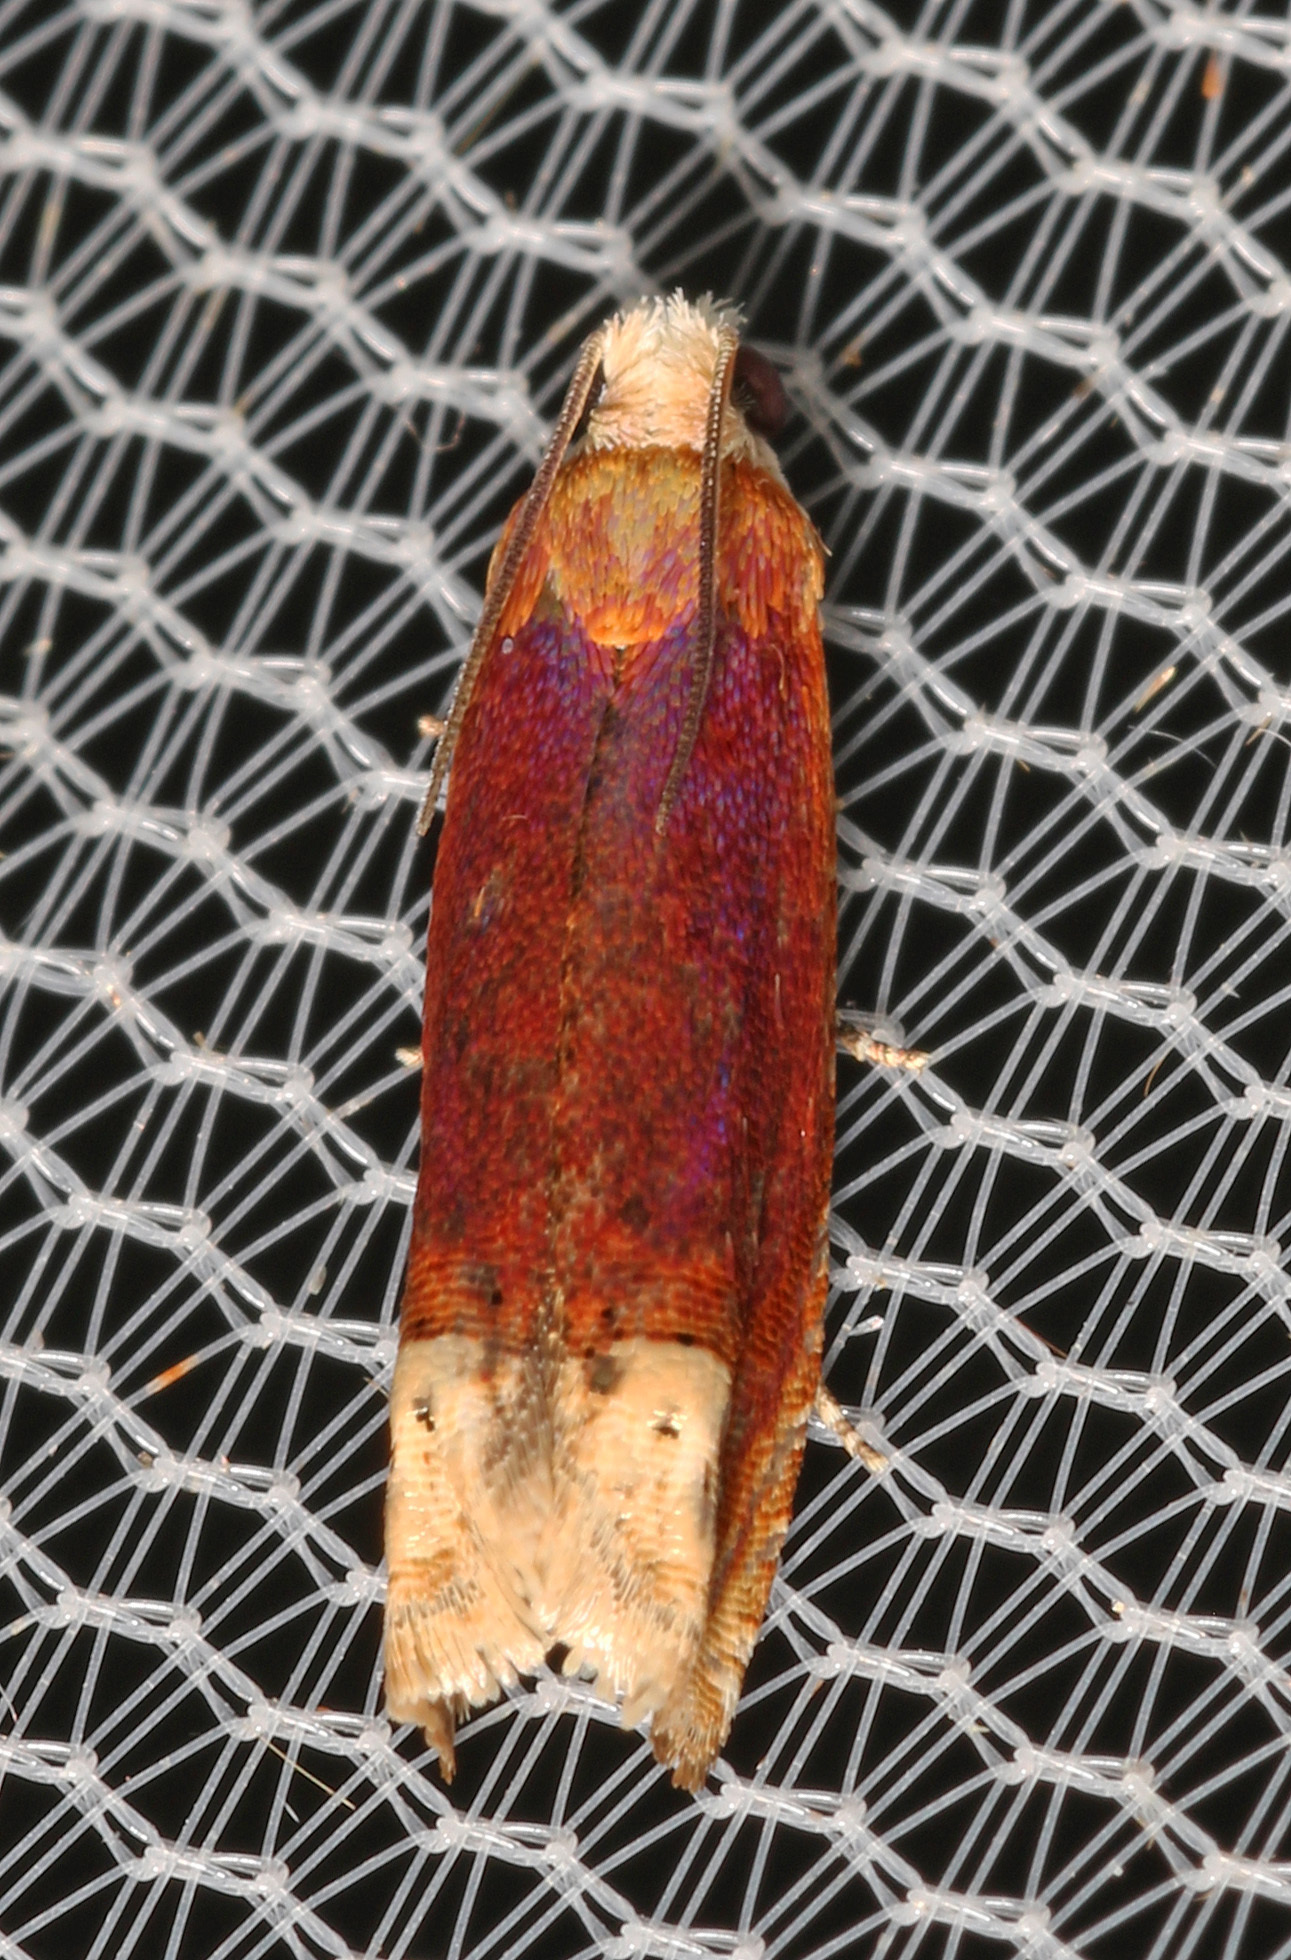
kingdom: Animalia
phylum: Arthropoda
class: Insecta
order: Lepidoptera
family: Tortricidae
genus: Eucosma
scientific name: Eucosma raracana
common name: Reddish eucosma moth
